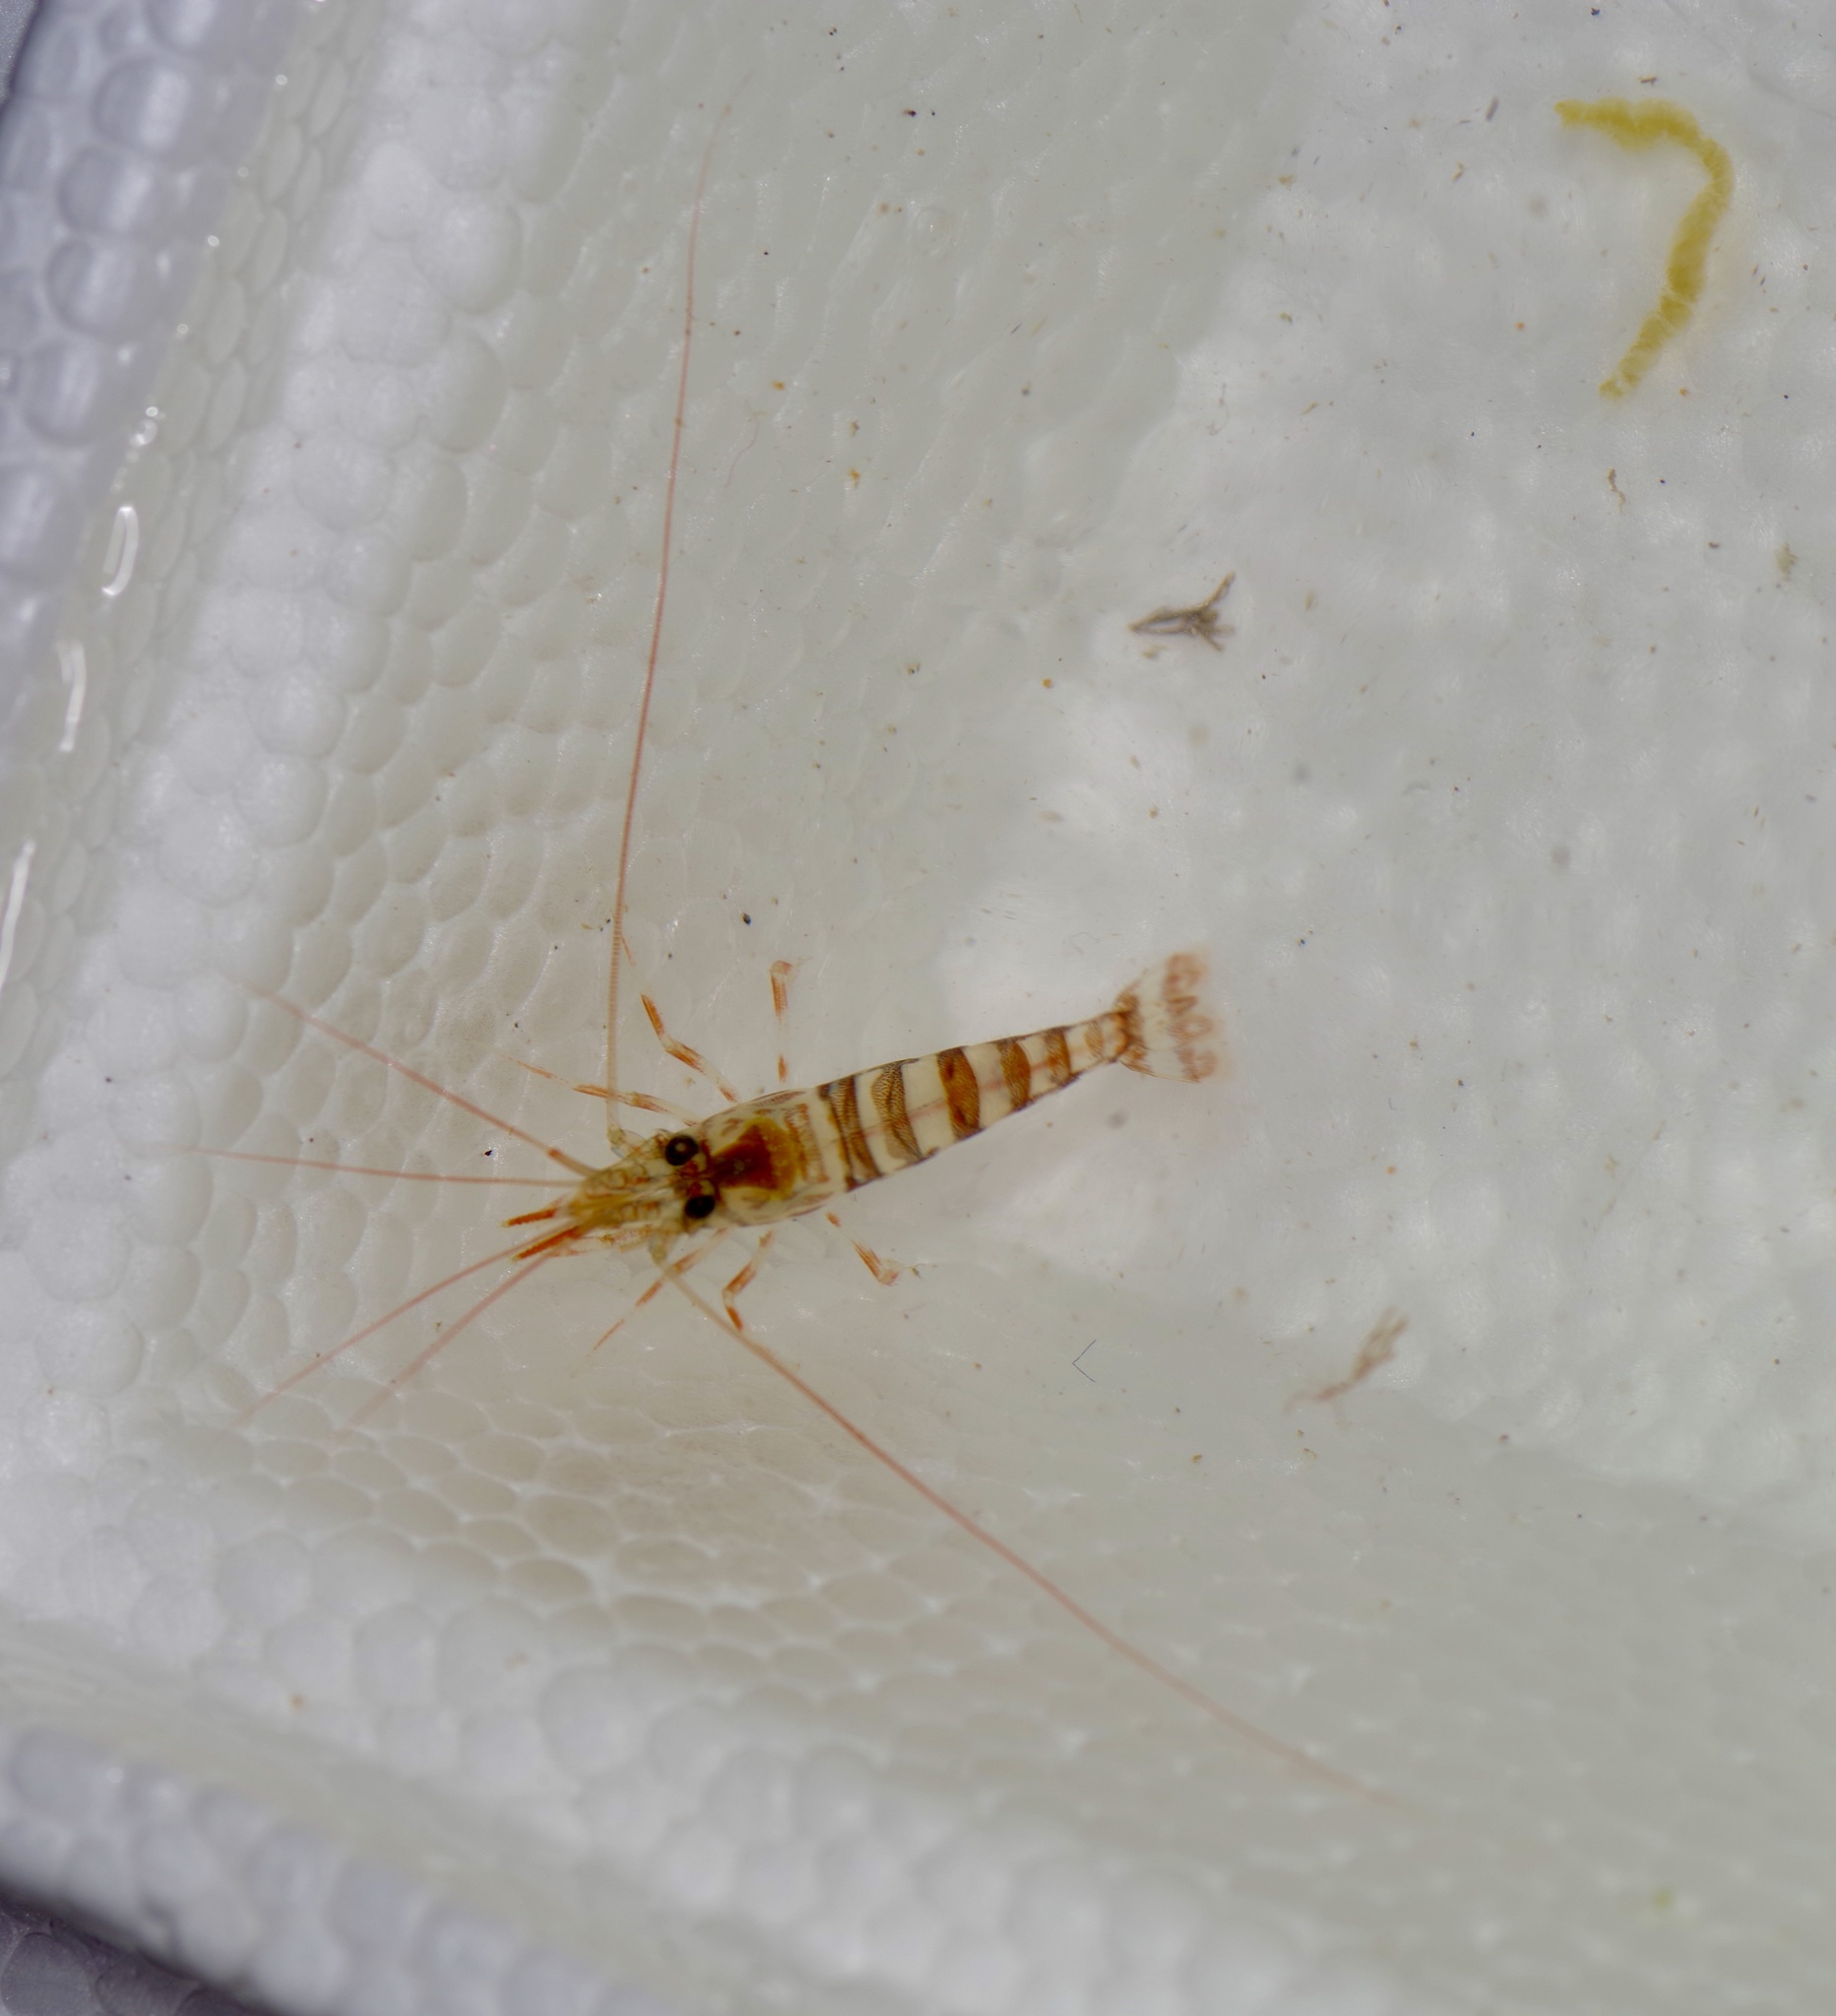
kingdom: Animalia
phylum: Arthropoda
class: Malacostraca
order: Decapoda
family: Lysmatidae
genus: Lysmata
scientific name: Lysmata hochi
